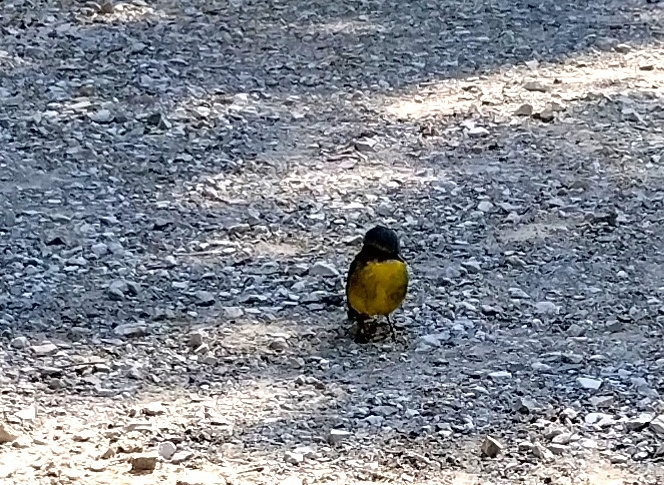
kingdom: Animalia
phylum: Chordata
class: Aves
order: Passeriformes
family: Petroicidae
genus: Eopsaltria
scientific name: Eopsaltria australis
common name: Eastern yellow robin
